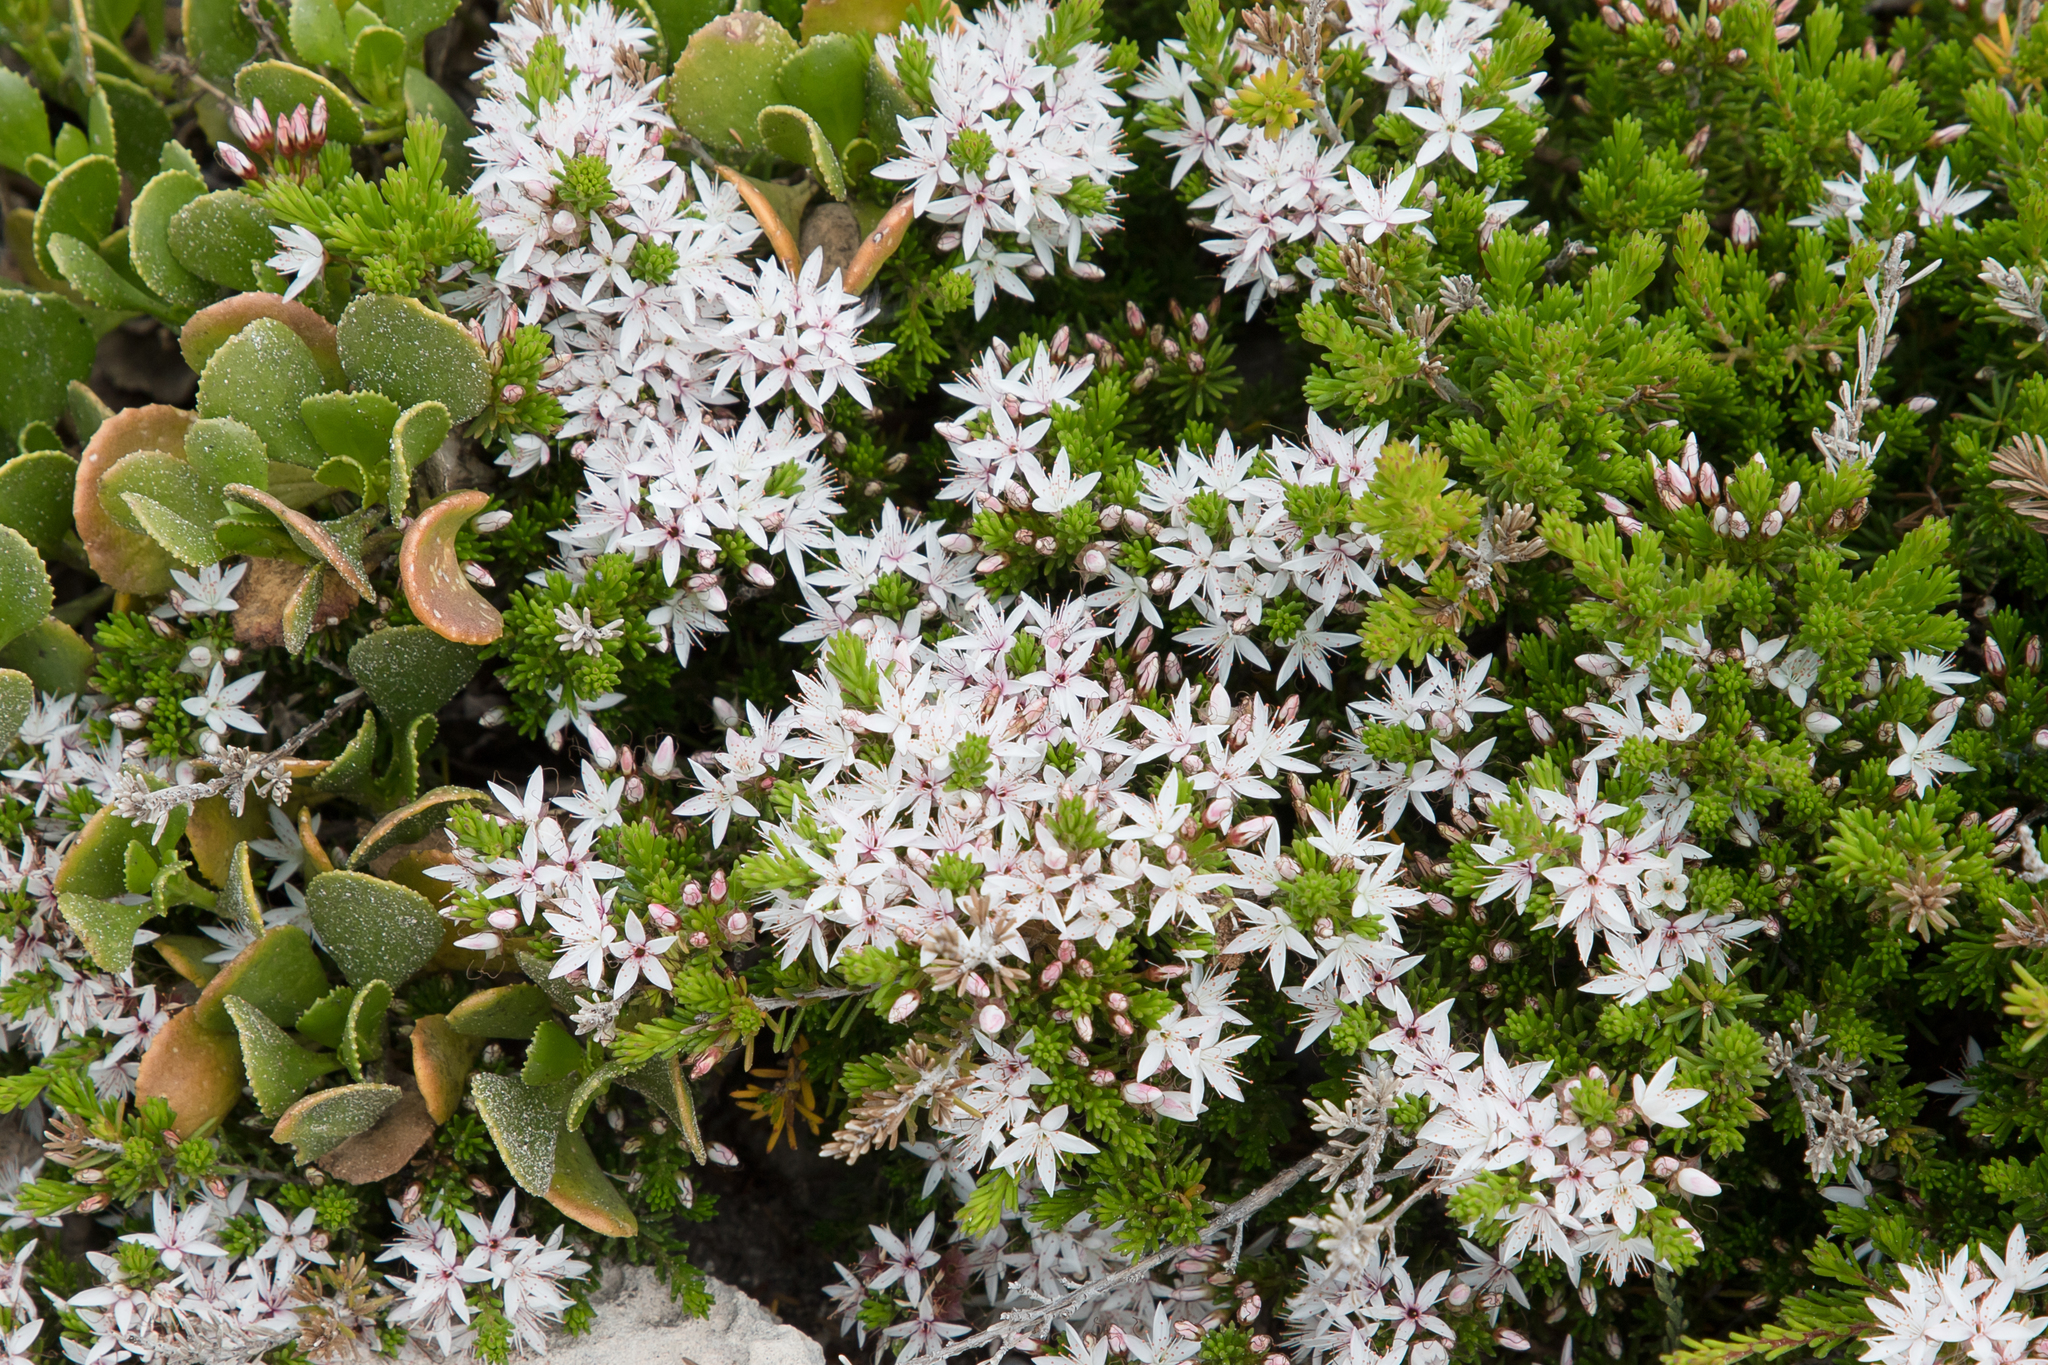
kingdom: Plantae
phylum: Tracheophyta
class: Magnoliopsida
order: Myrtales
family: Myrtaceae
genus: Calytrix
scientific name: Calytrix tetragona
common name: Common fringe myrtle
